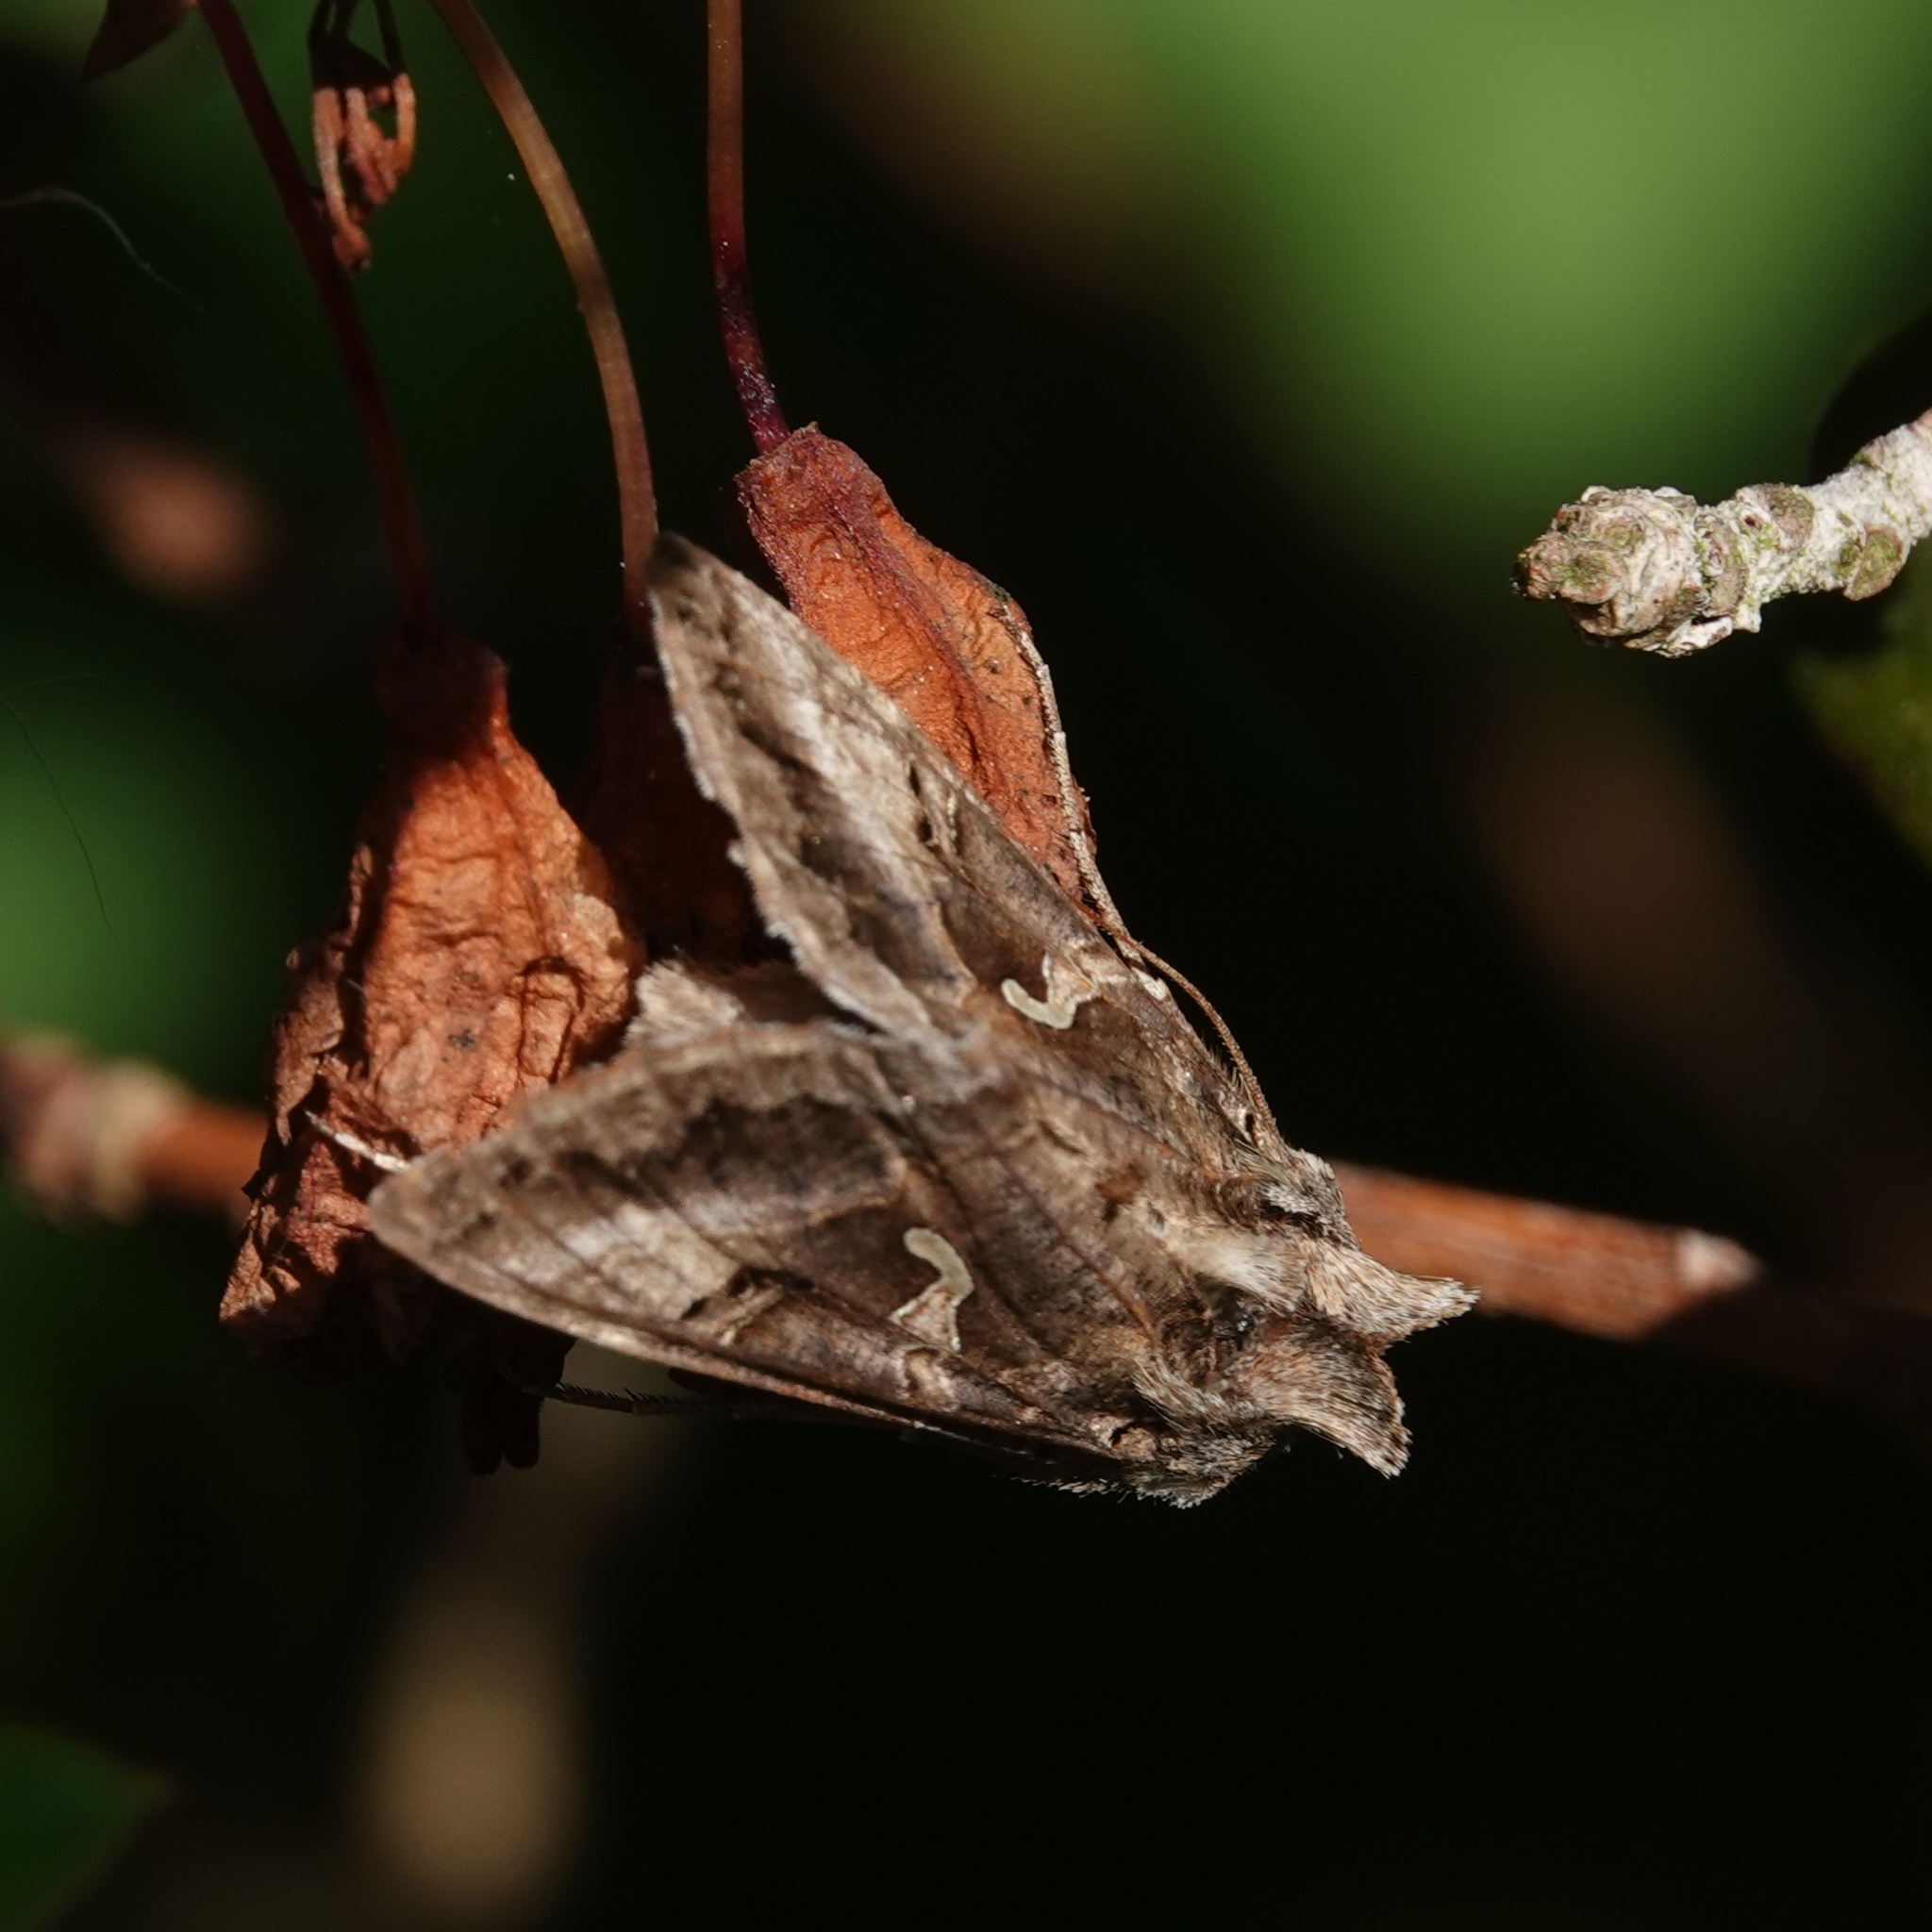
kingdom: Animalia
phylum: Arthropoda
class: Insecta
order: Lepidoptera
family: Noctuidae
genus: Autographa
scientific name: Autographa gamma
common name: Silver y
